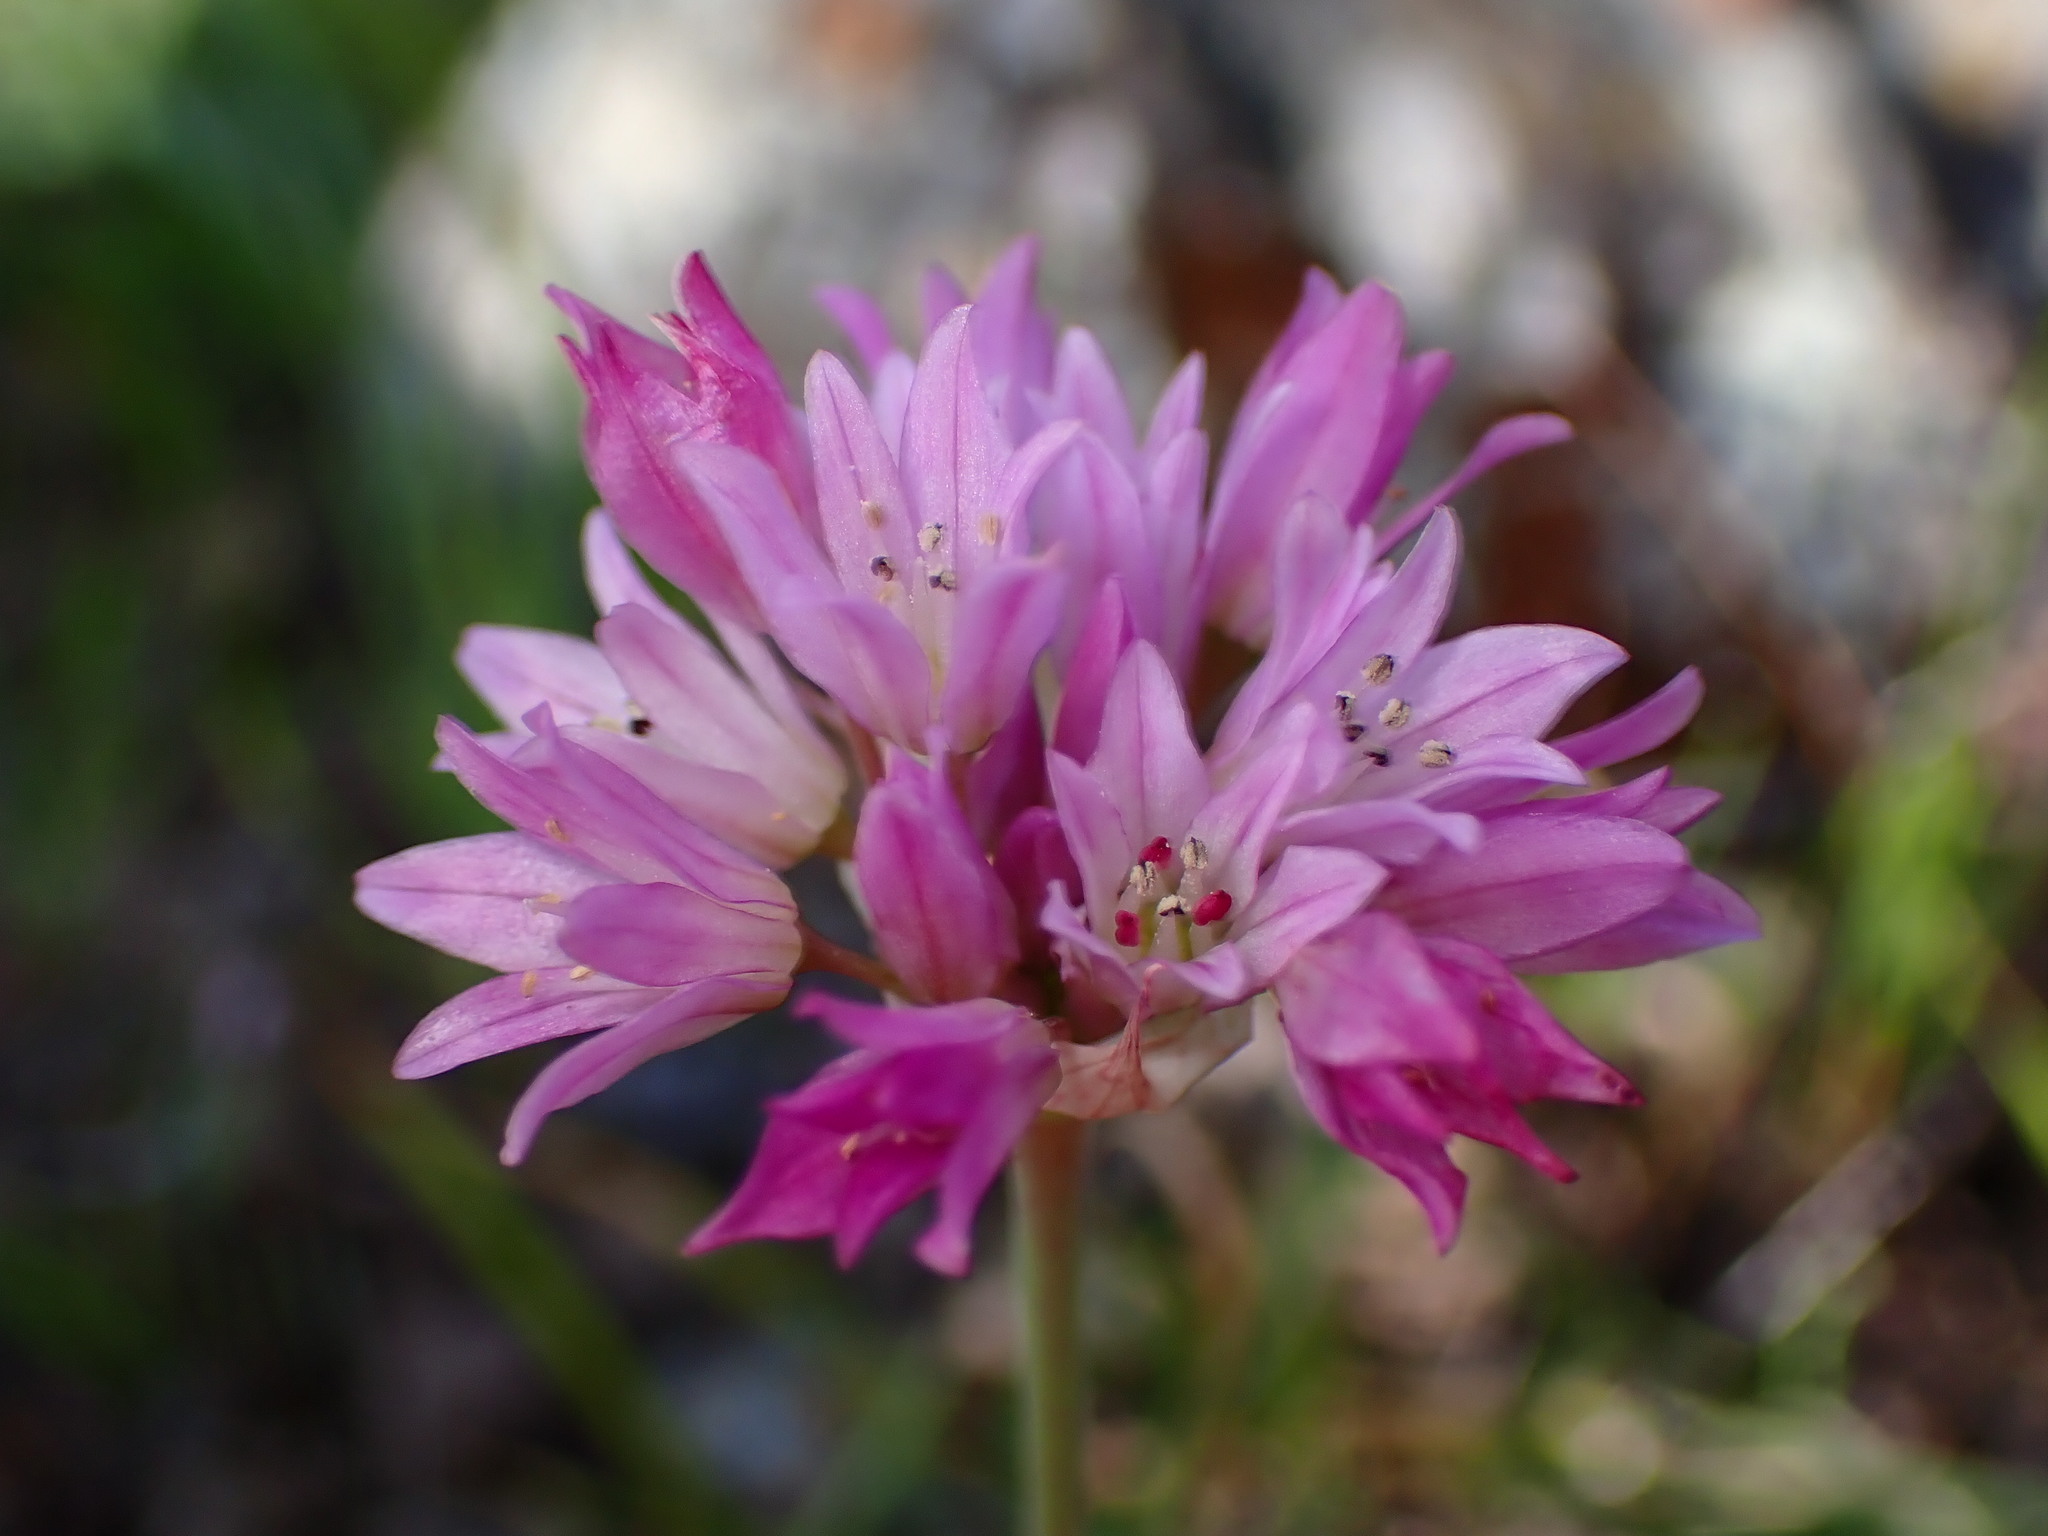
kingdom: Plantae
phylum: Tracheophyta
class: Liliopsida
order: Asparagales
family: Amaryllidaceae
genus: Allium
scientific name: Allium serra
